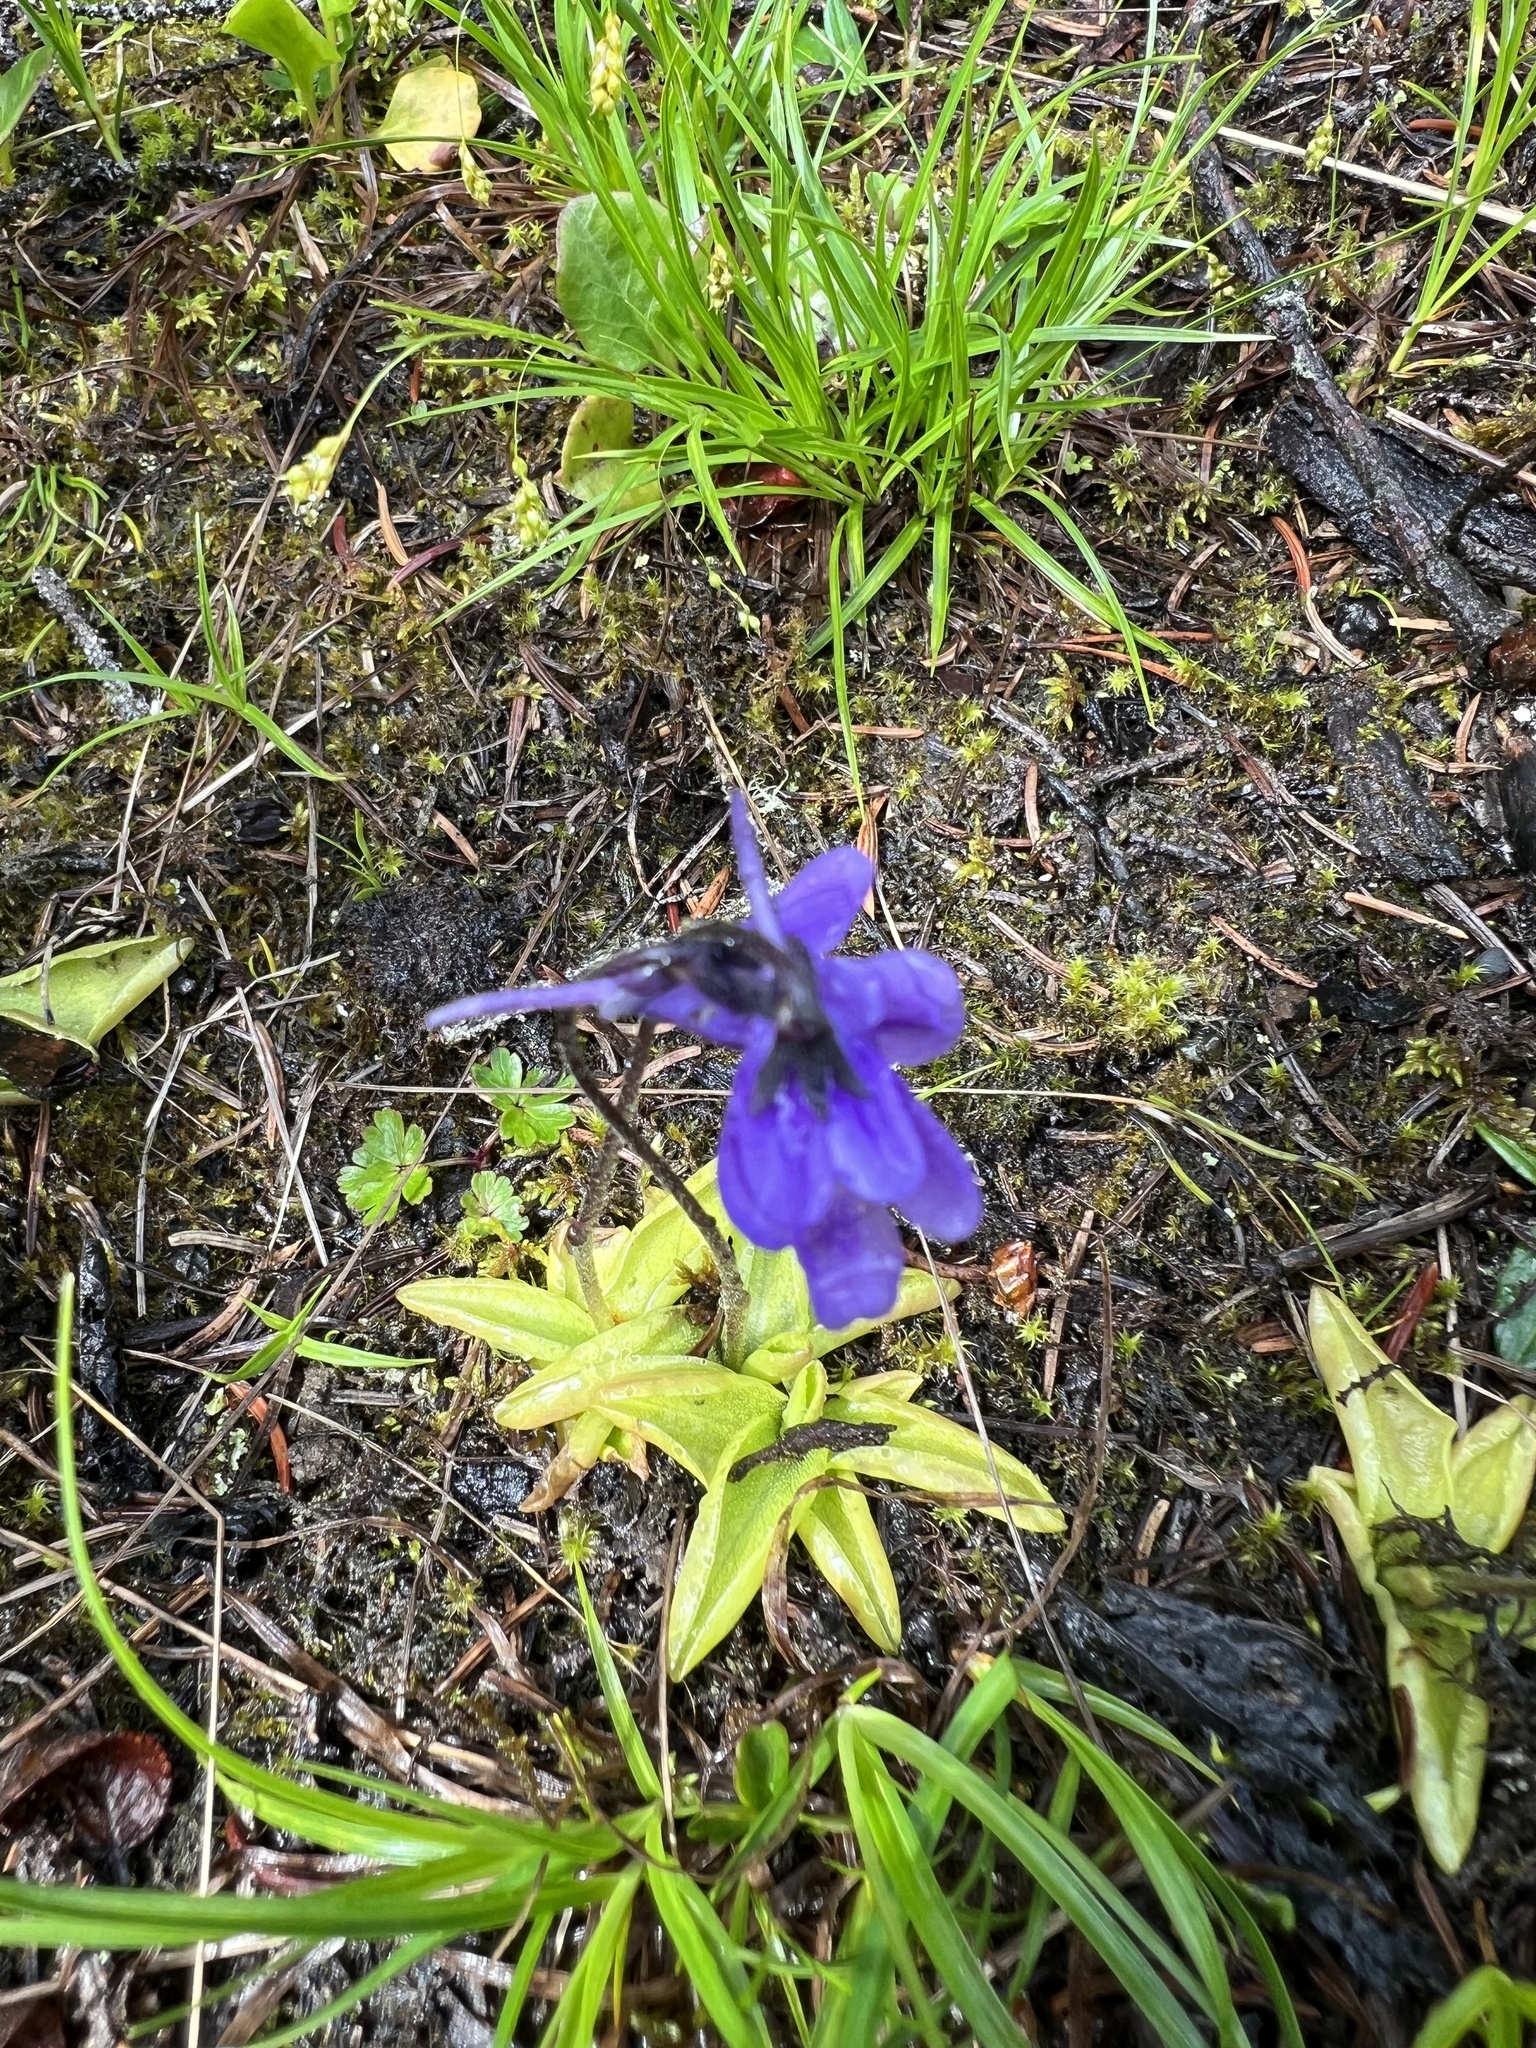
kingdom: Plantae
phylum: Tracheophyta
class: Magnoliopsida
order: Lamiales
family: Lentibulariaceae
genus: Pinguicula
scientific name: Pinguicula vulgaris
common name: Common butterwort
